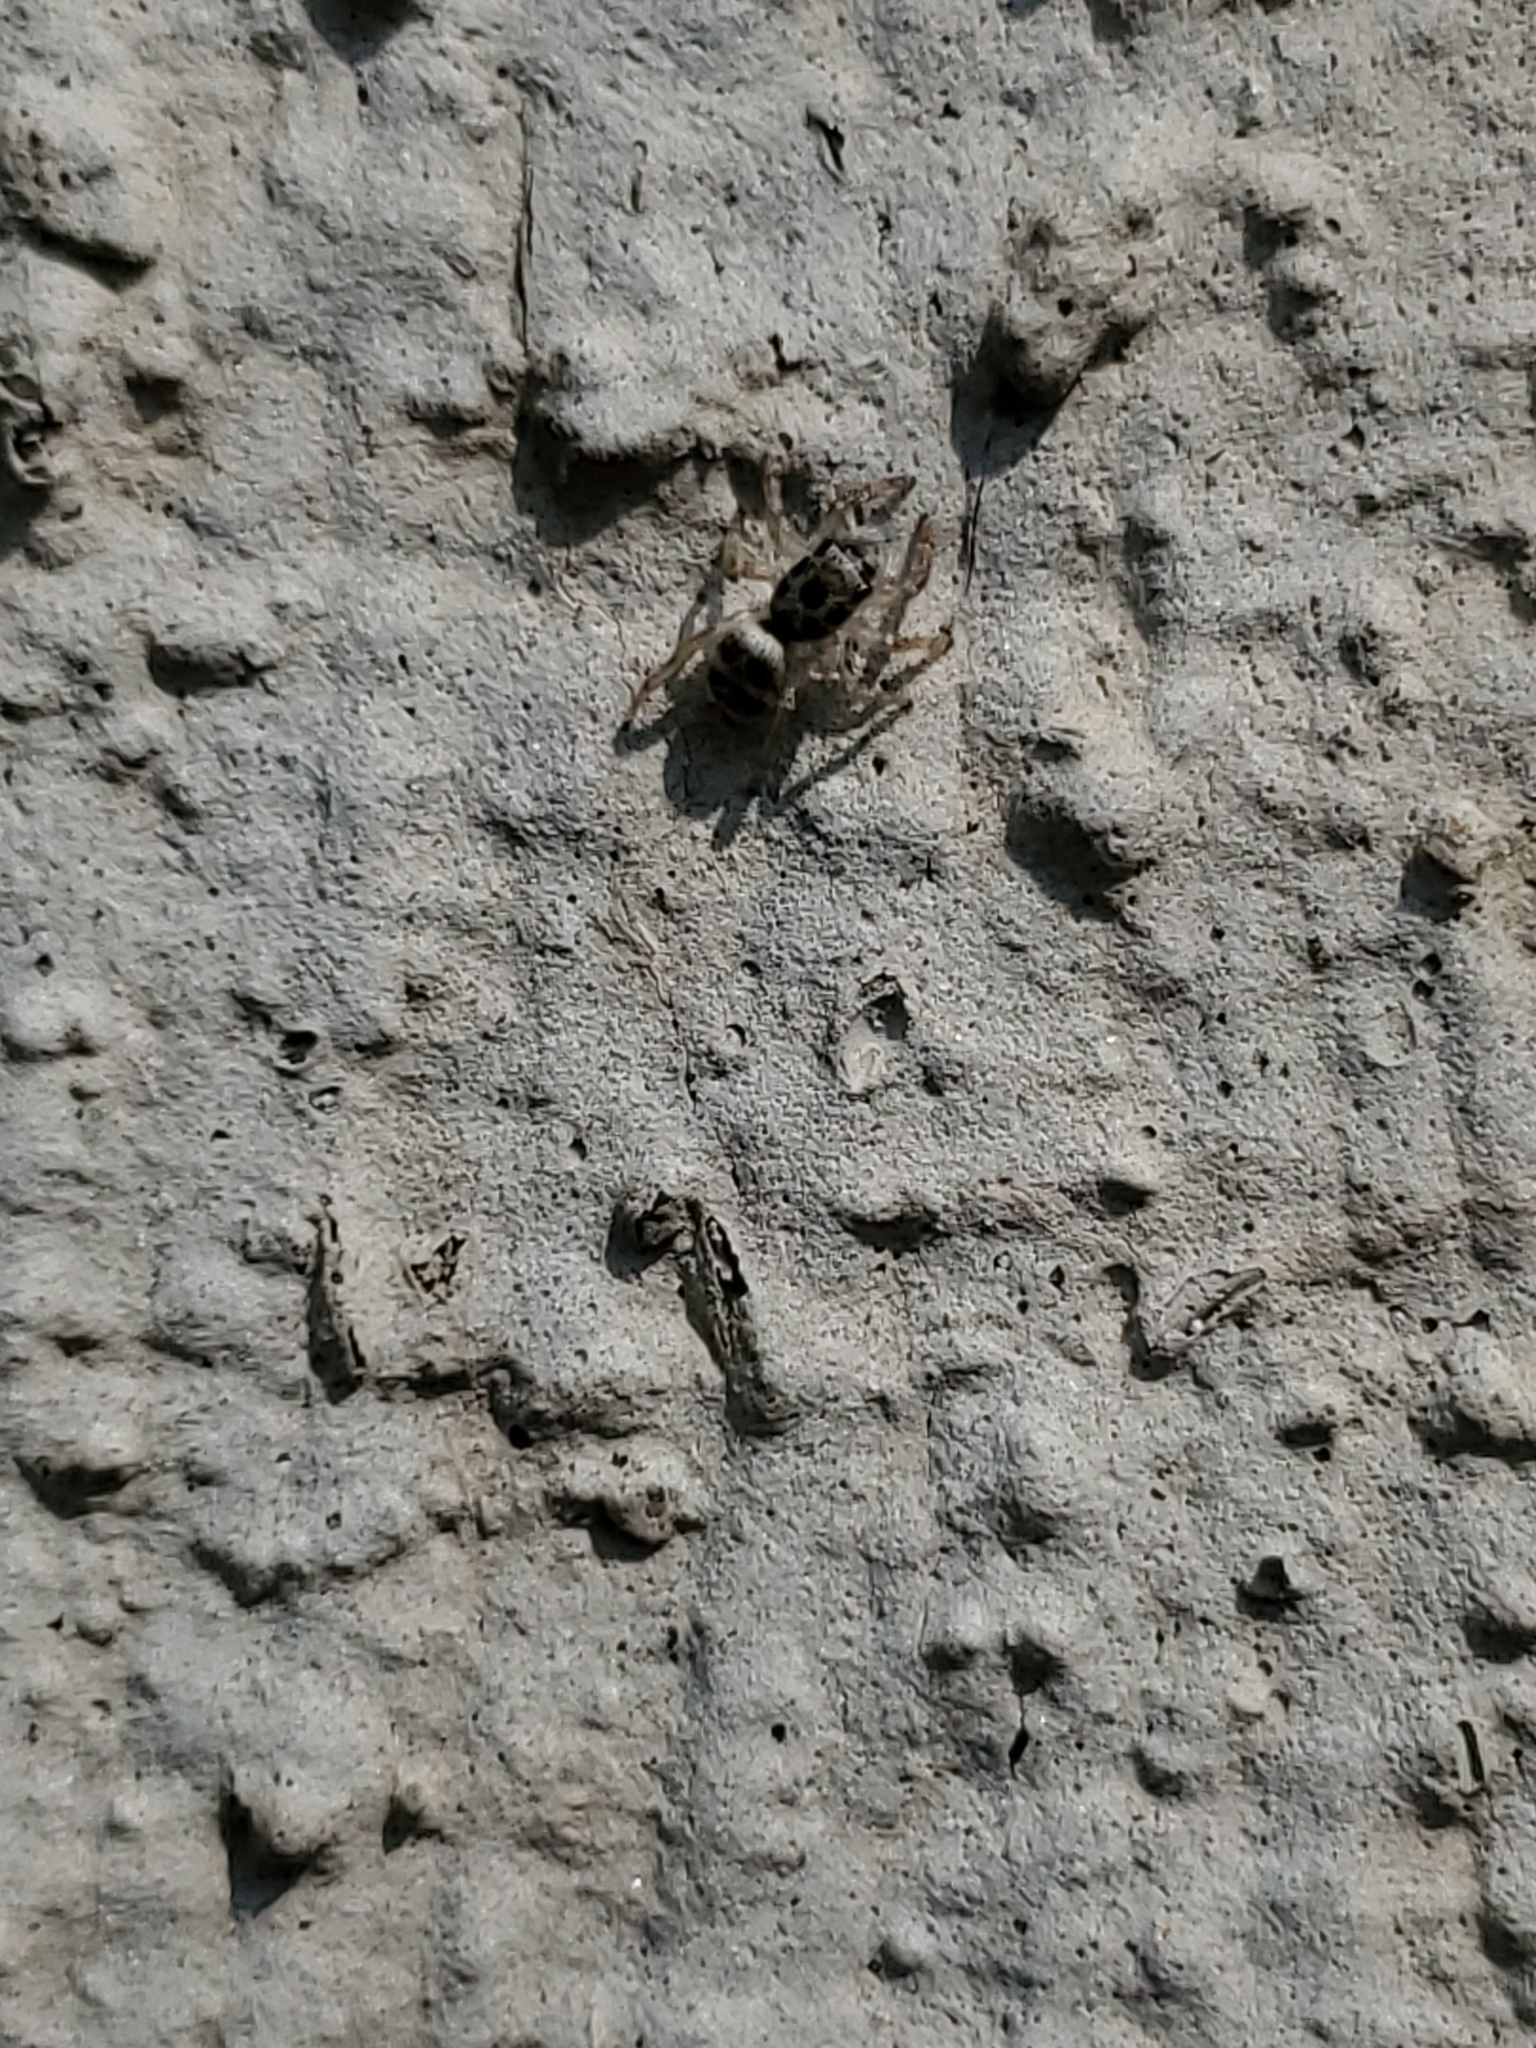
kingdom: Animalia
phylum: Arthropoda
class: Arachnida
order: Araneae
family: Salticidae
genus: Salticus
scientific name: Salticus scenicus
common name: Zebra jumper
